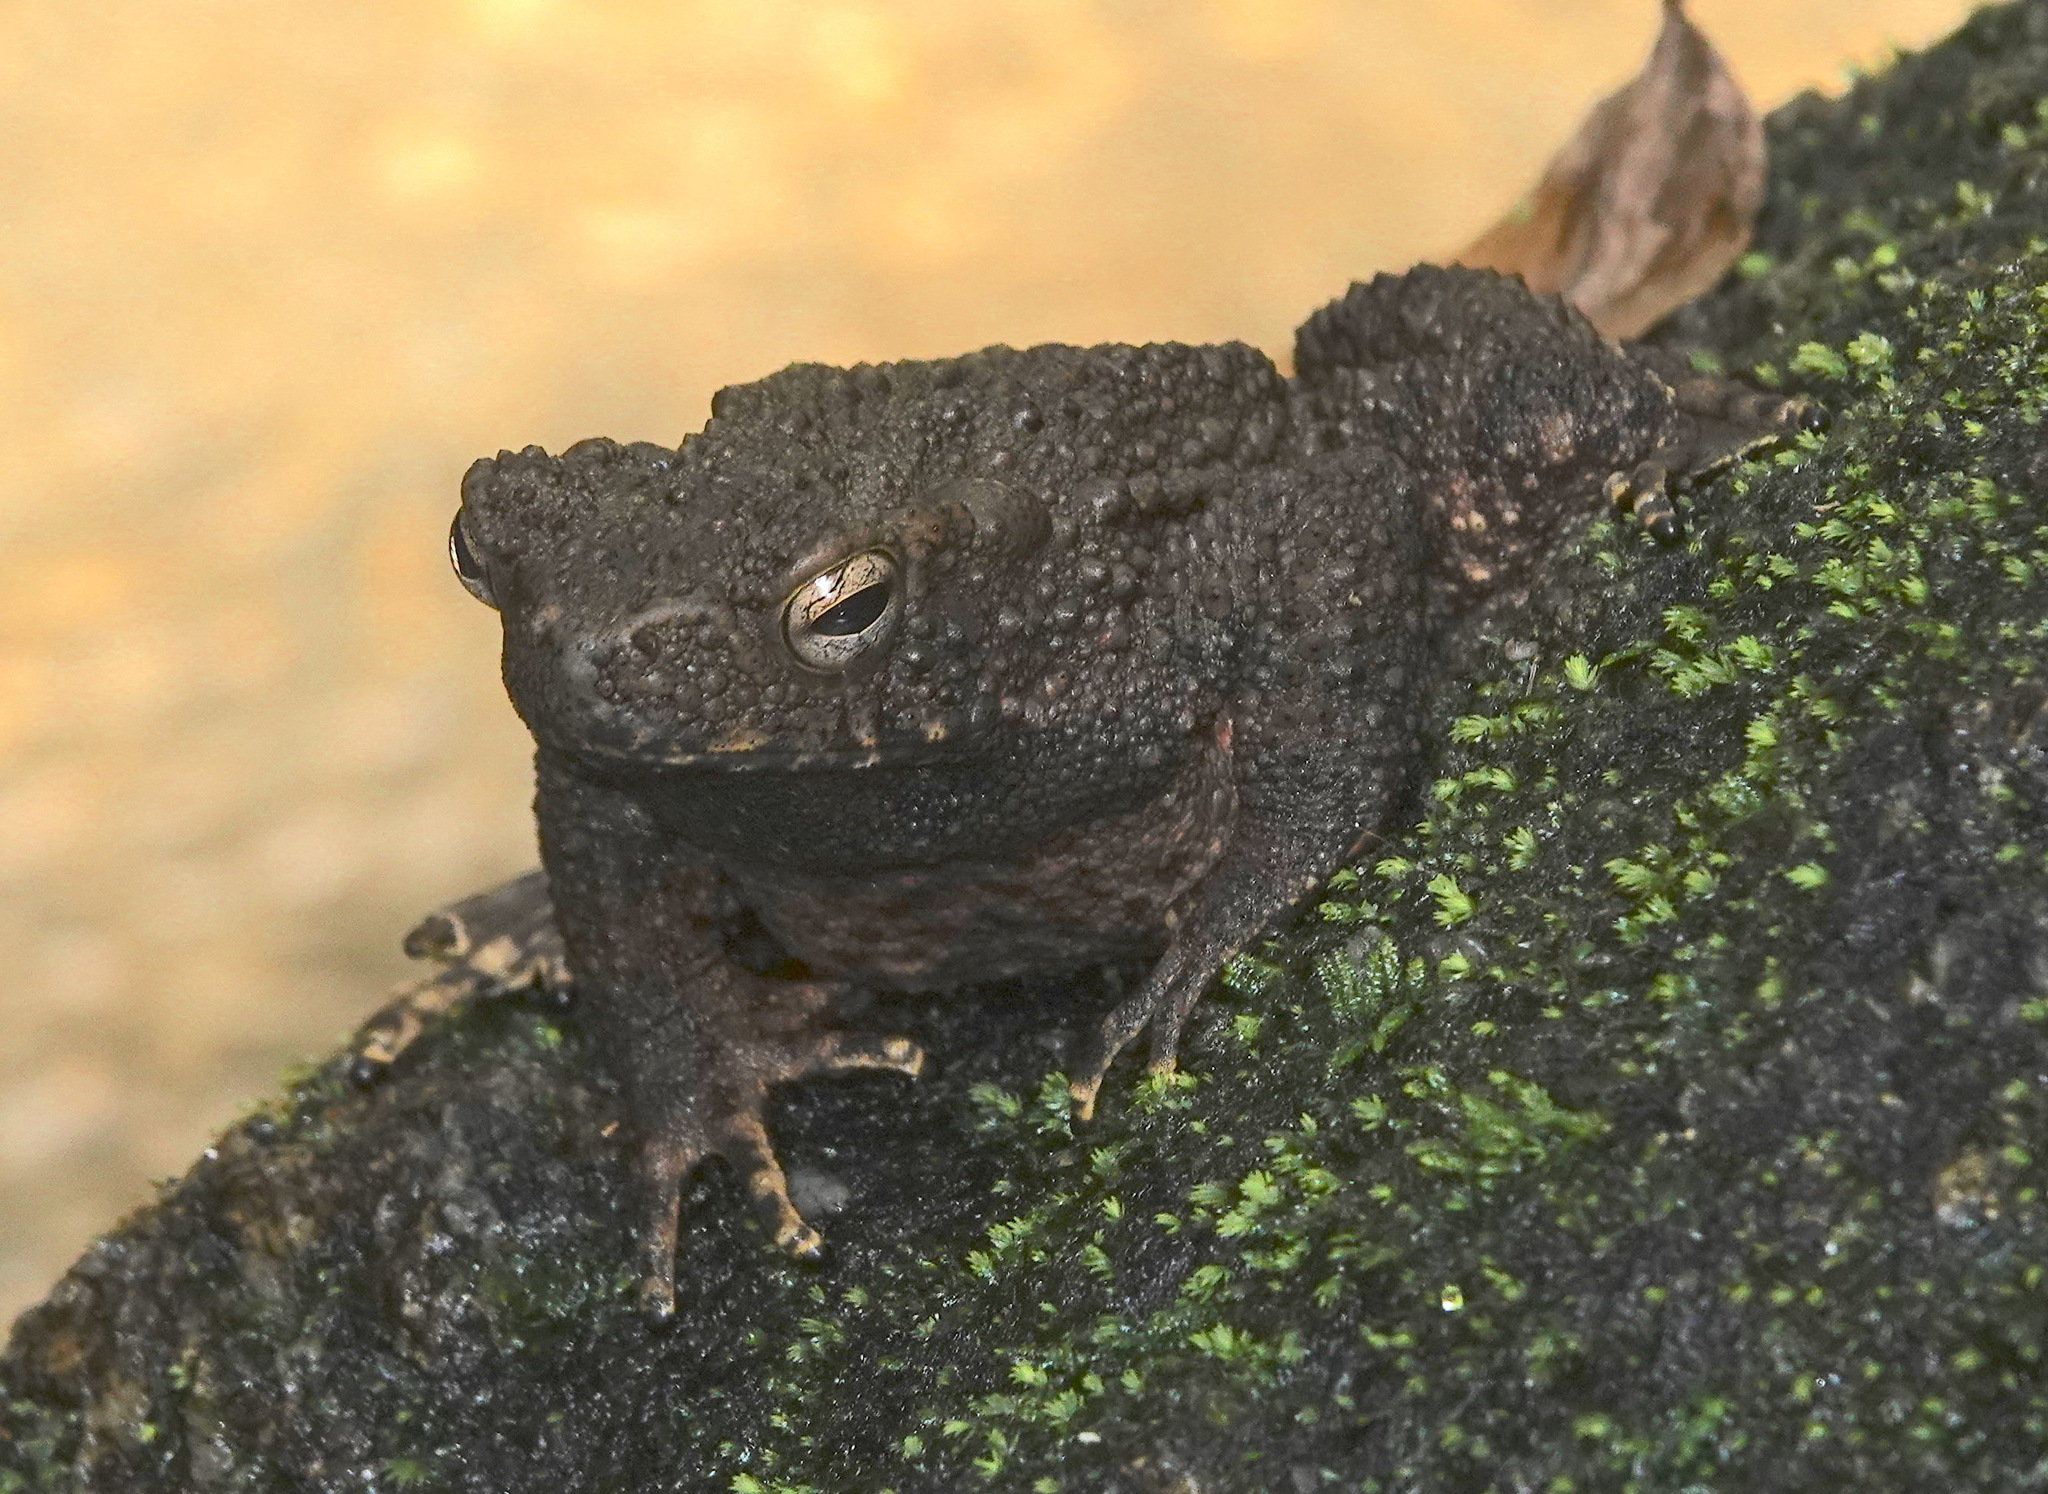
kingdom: Animalia
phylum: Chordata
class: Amphibia
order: Anura
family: Bufonidae
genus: Phrynoidis
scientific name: Phrynoidis asper
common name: Asian giant toad
